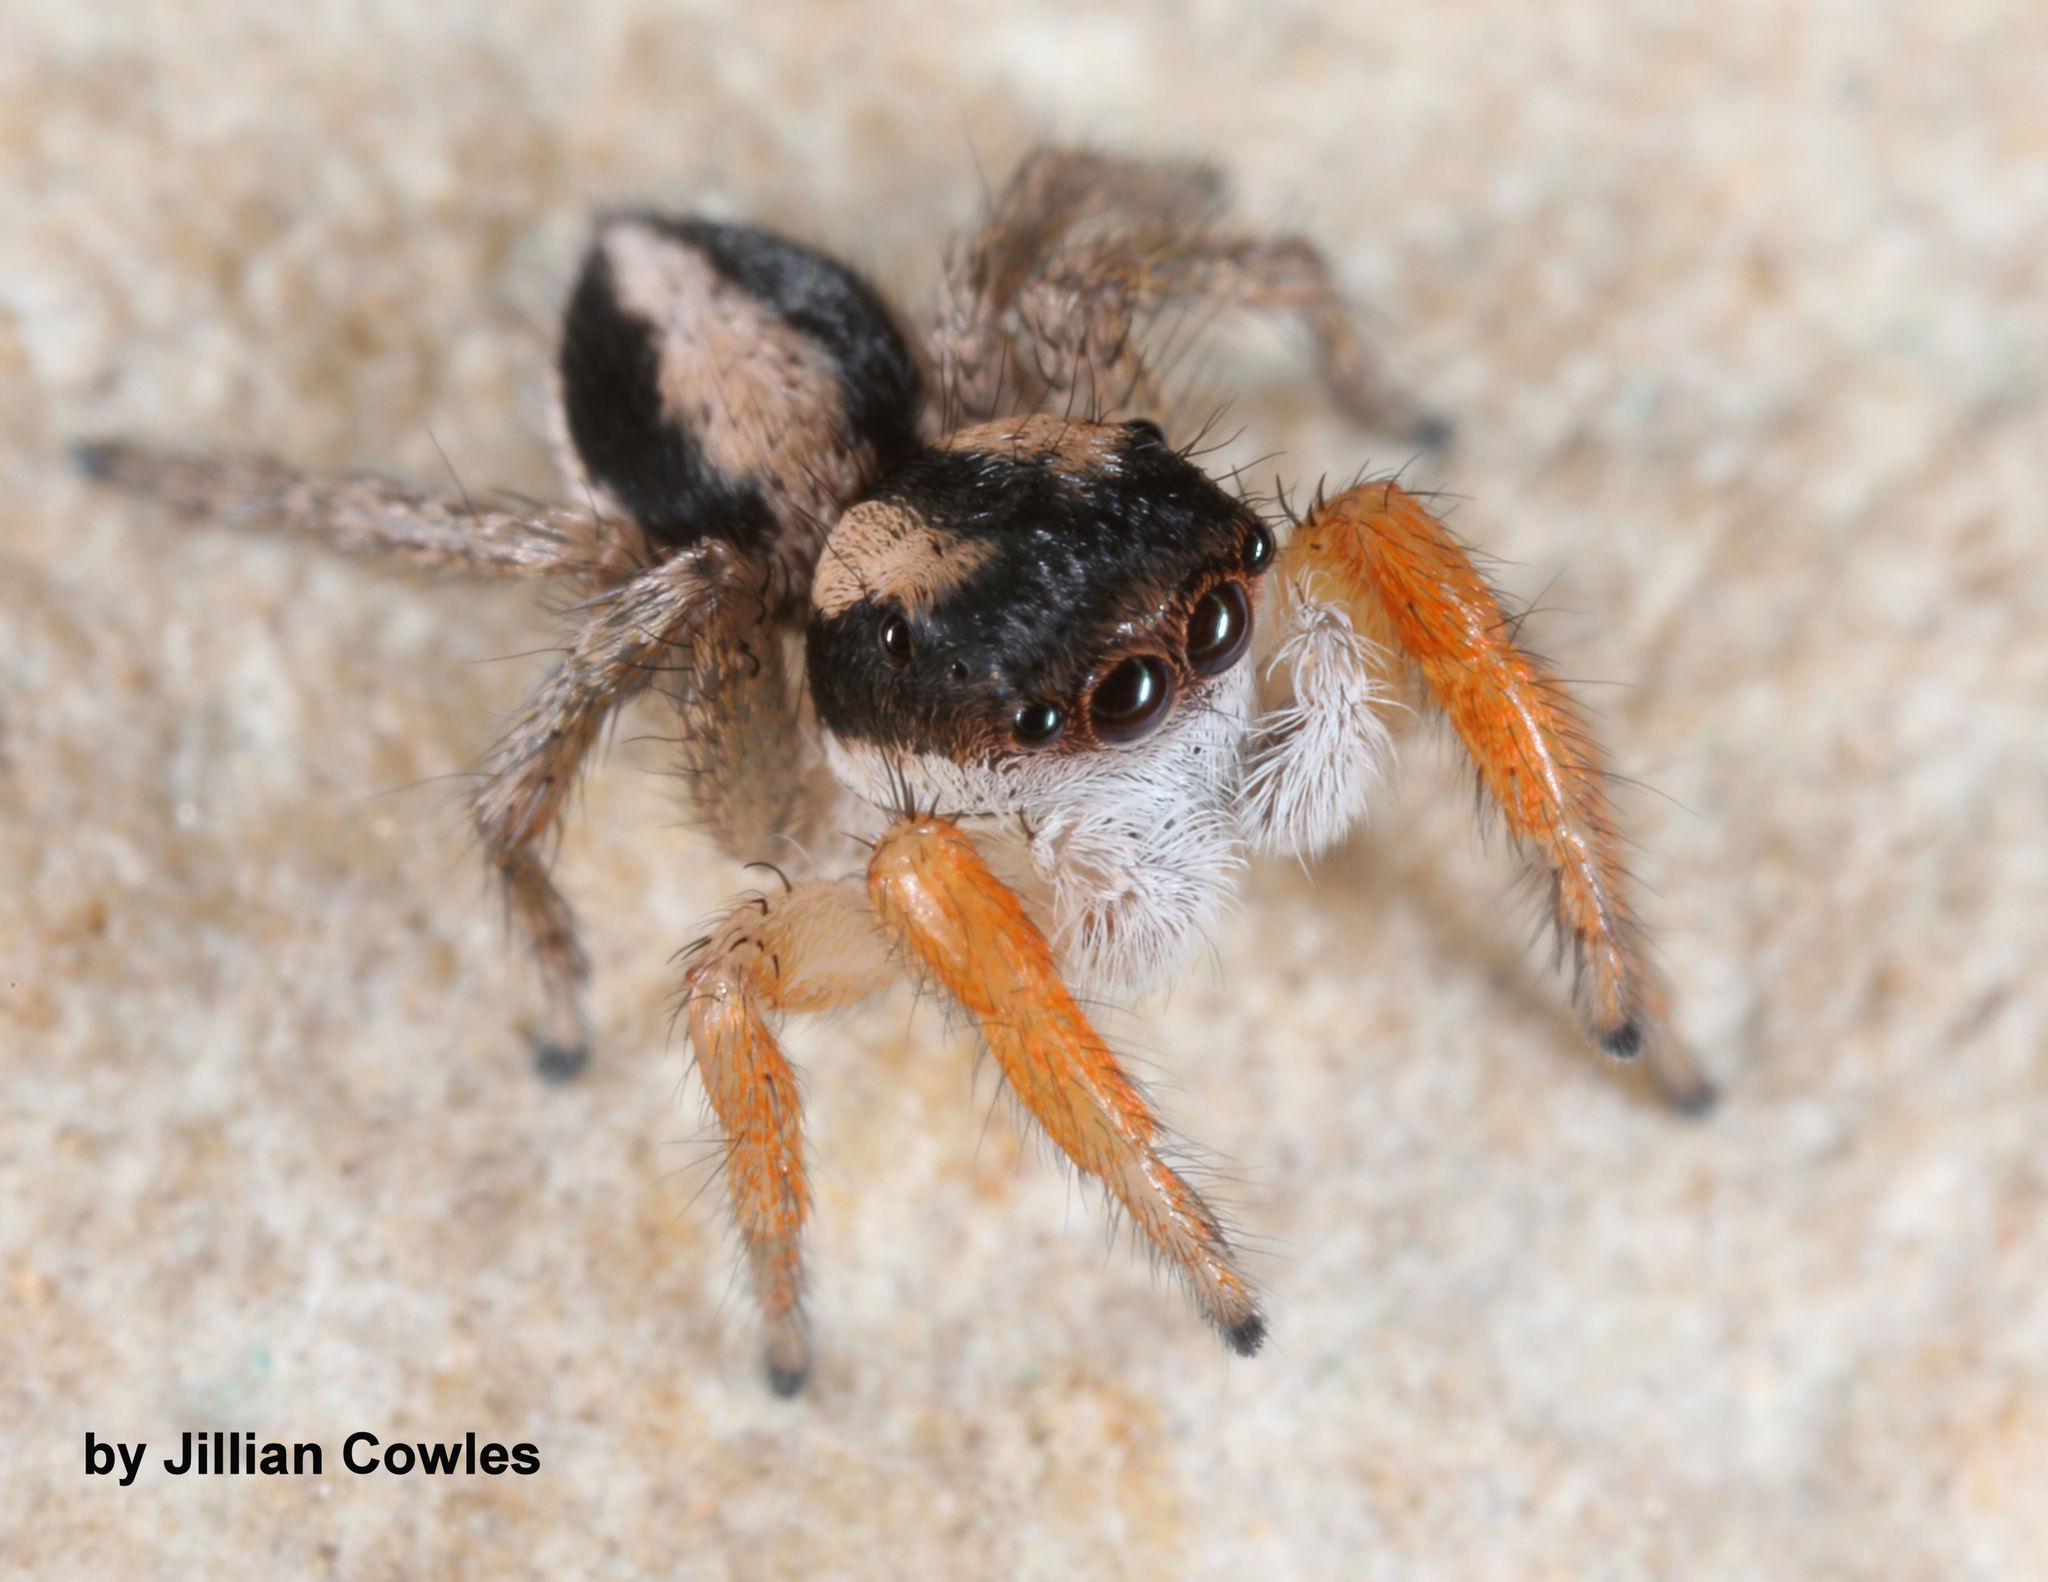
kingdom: Animalia
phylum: Arthropoda
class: Arachnida
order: Araneae
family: Salticidae
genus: Habronattus
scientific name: Habronattus icenoglei
